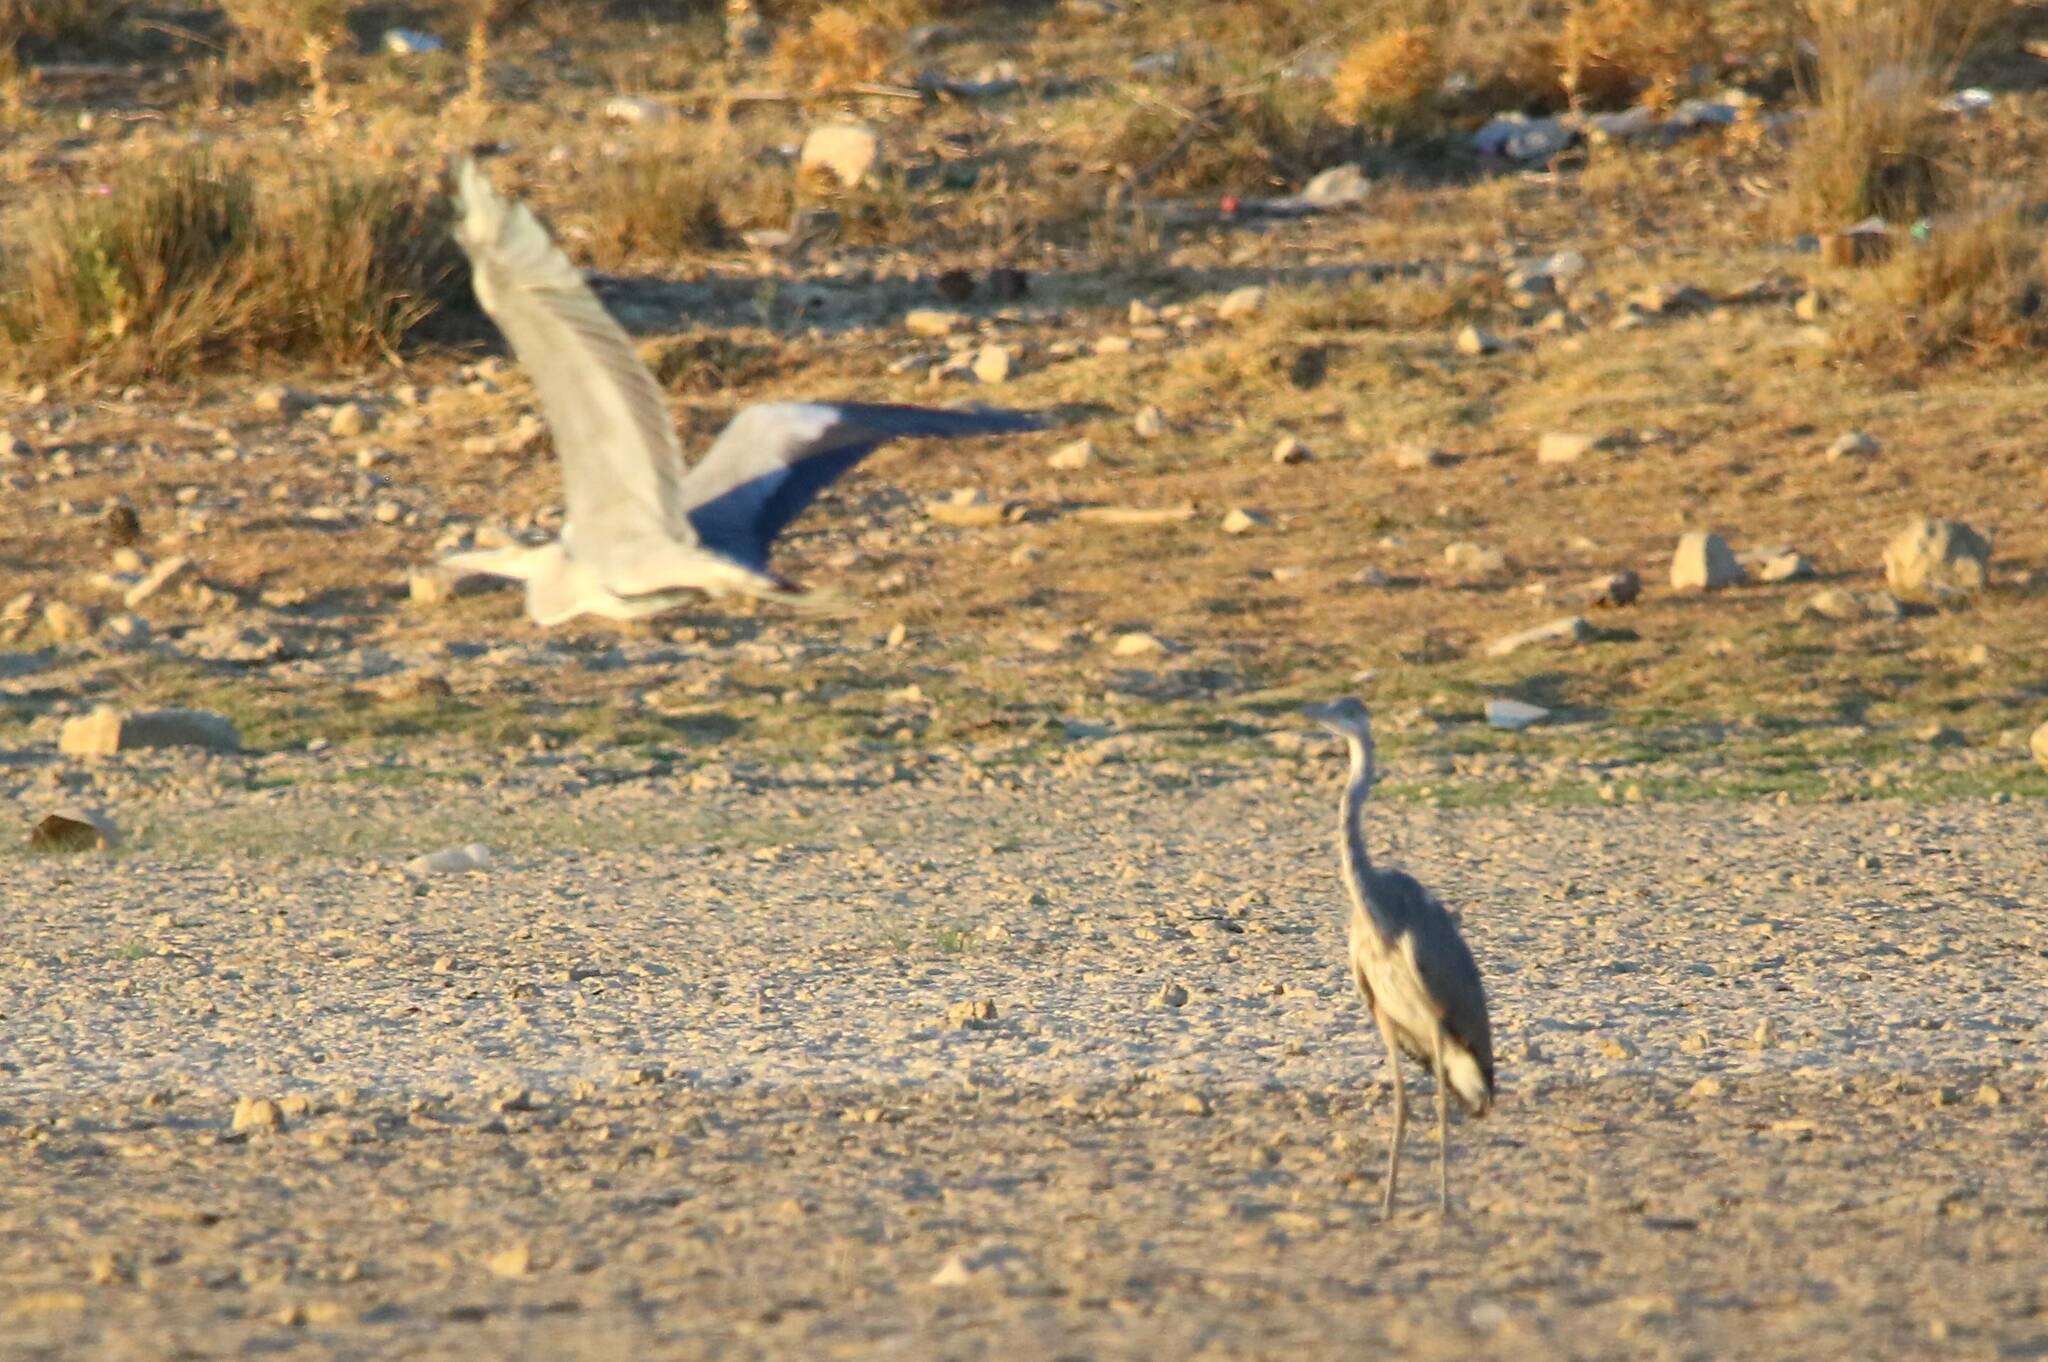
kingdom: Animalia
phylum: Chordata
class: Aves
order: Pelecaniformes
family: Ardeidae
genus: Ardea
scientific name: Ardea cinerea
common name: Grey heron
